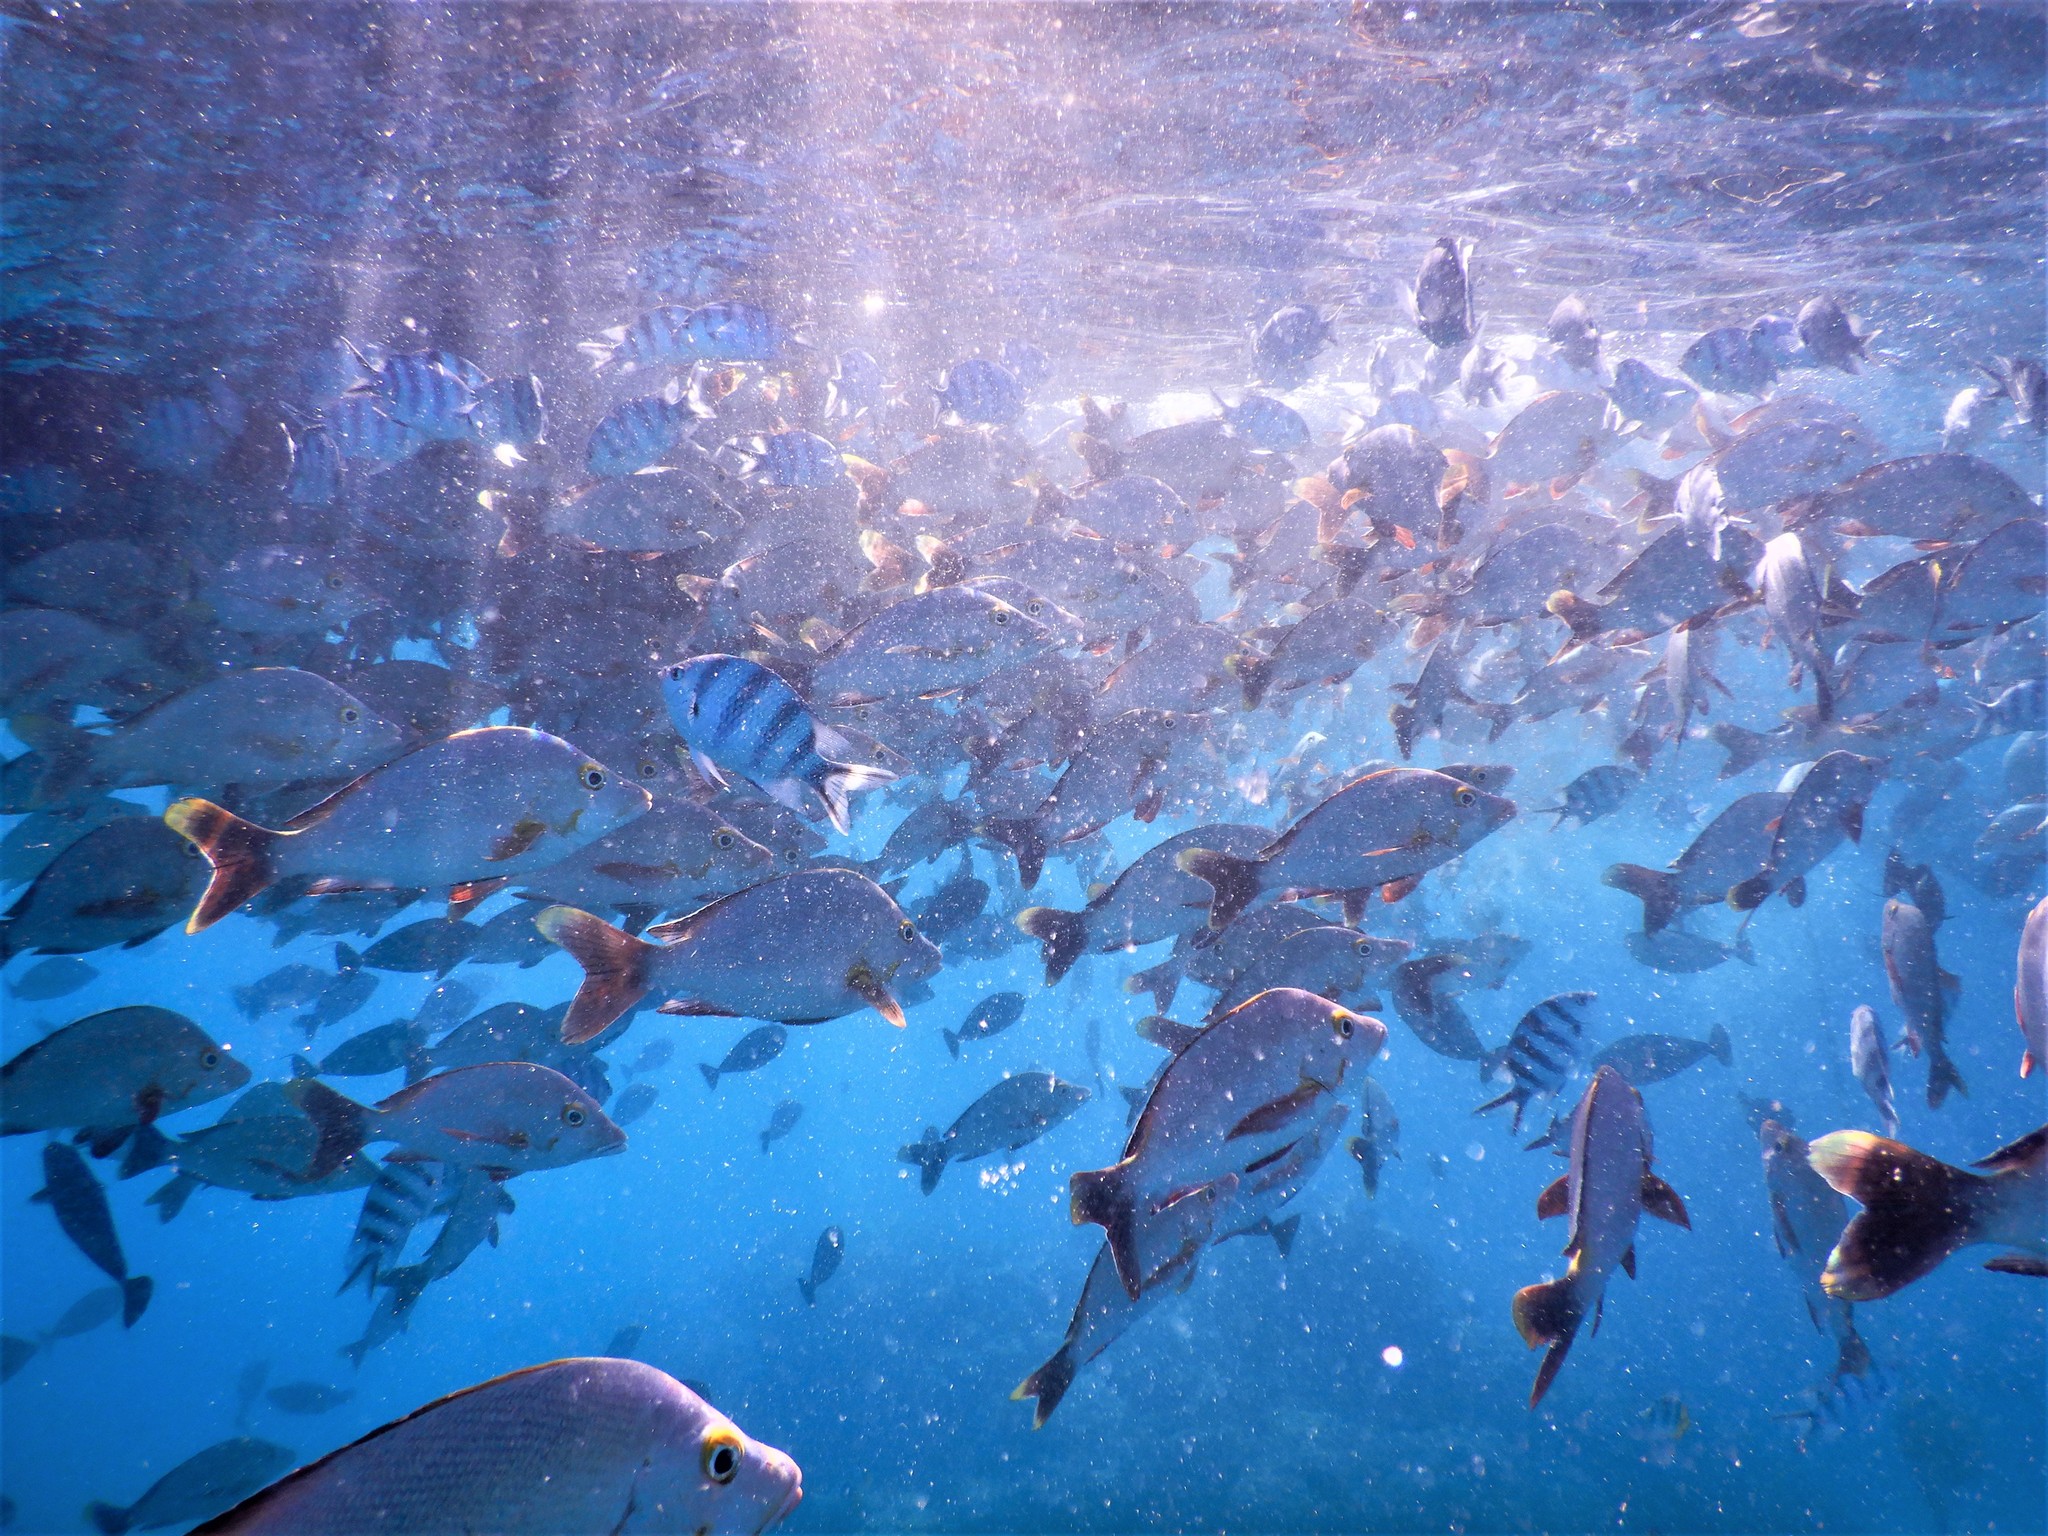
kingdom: Animalia
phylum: Chordata
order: Perciformes
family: Lutjanidae
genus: Lutjanus
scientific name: Lutjanus gibbus
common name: Humpback snapper
